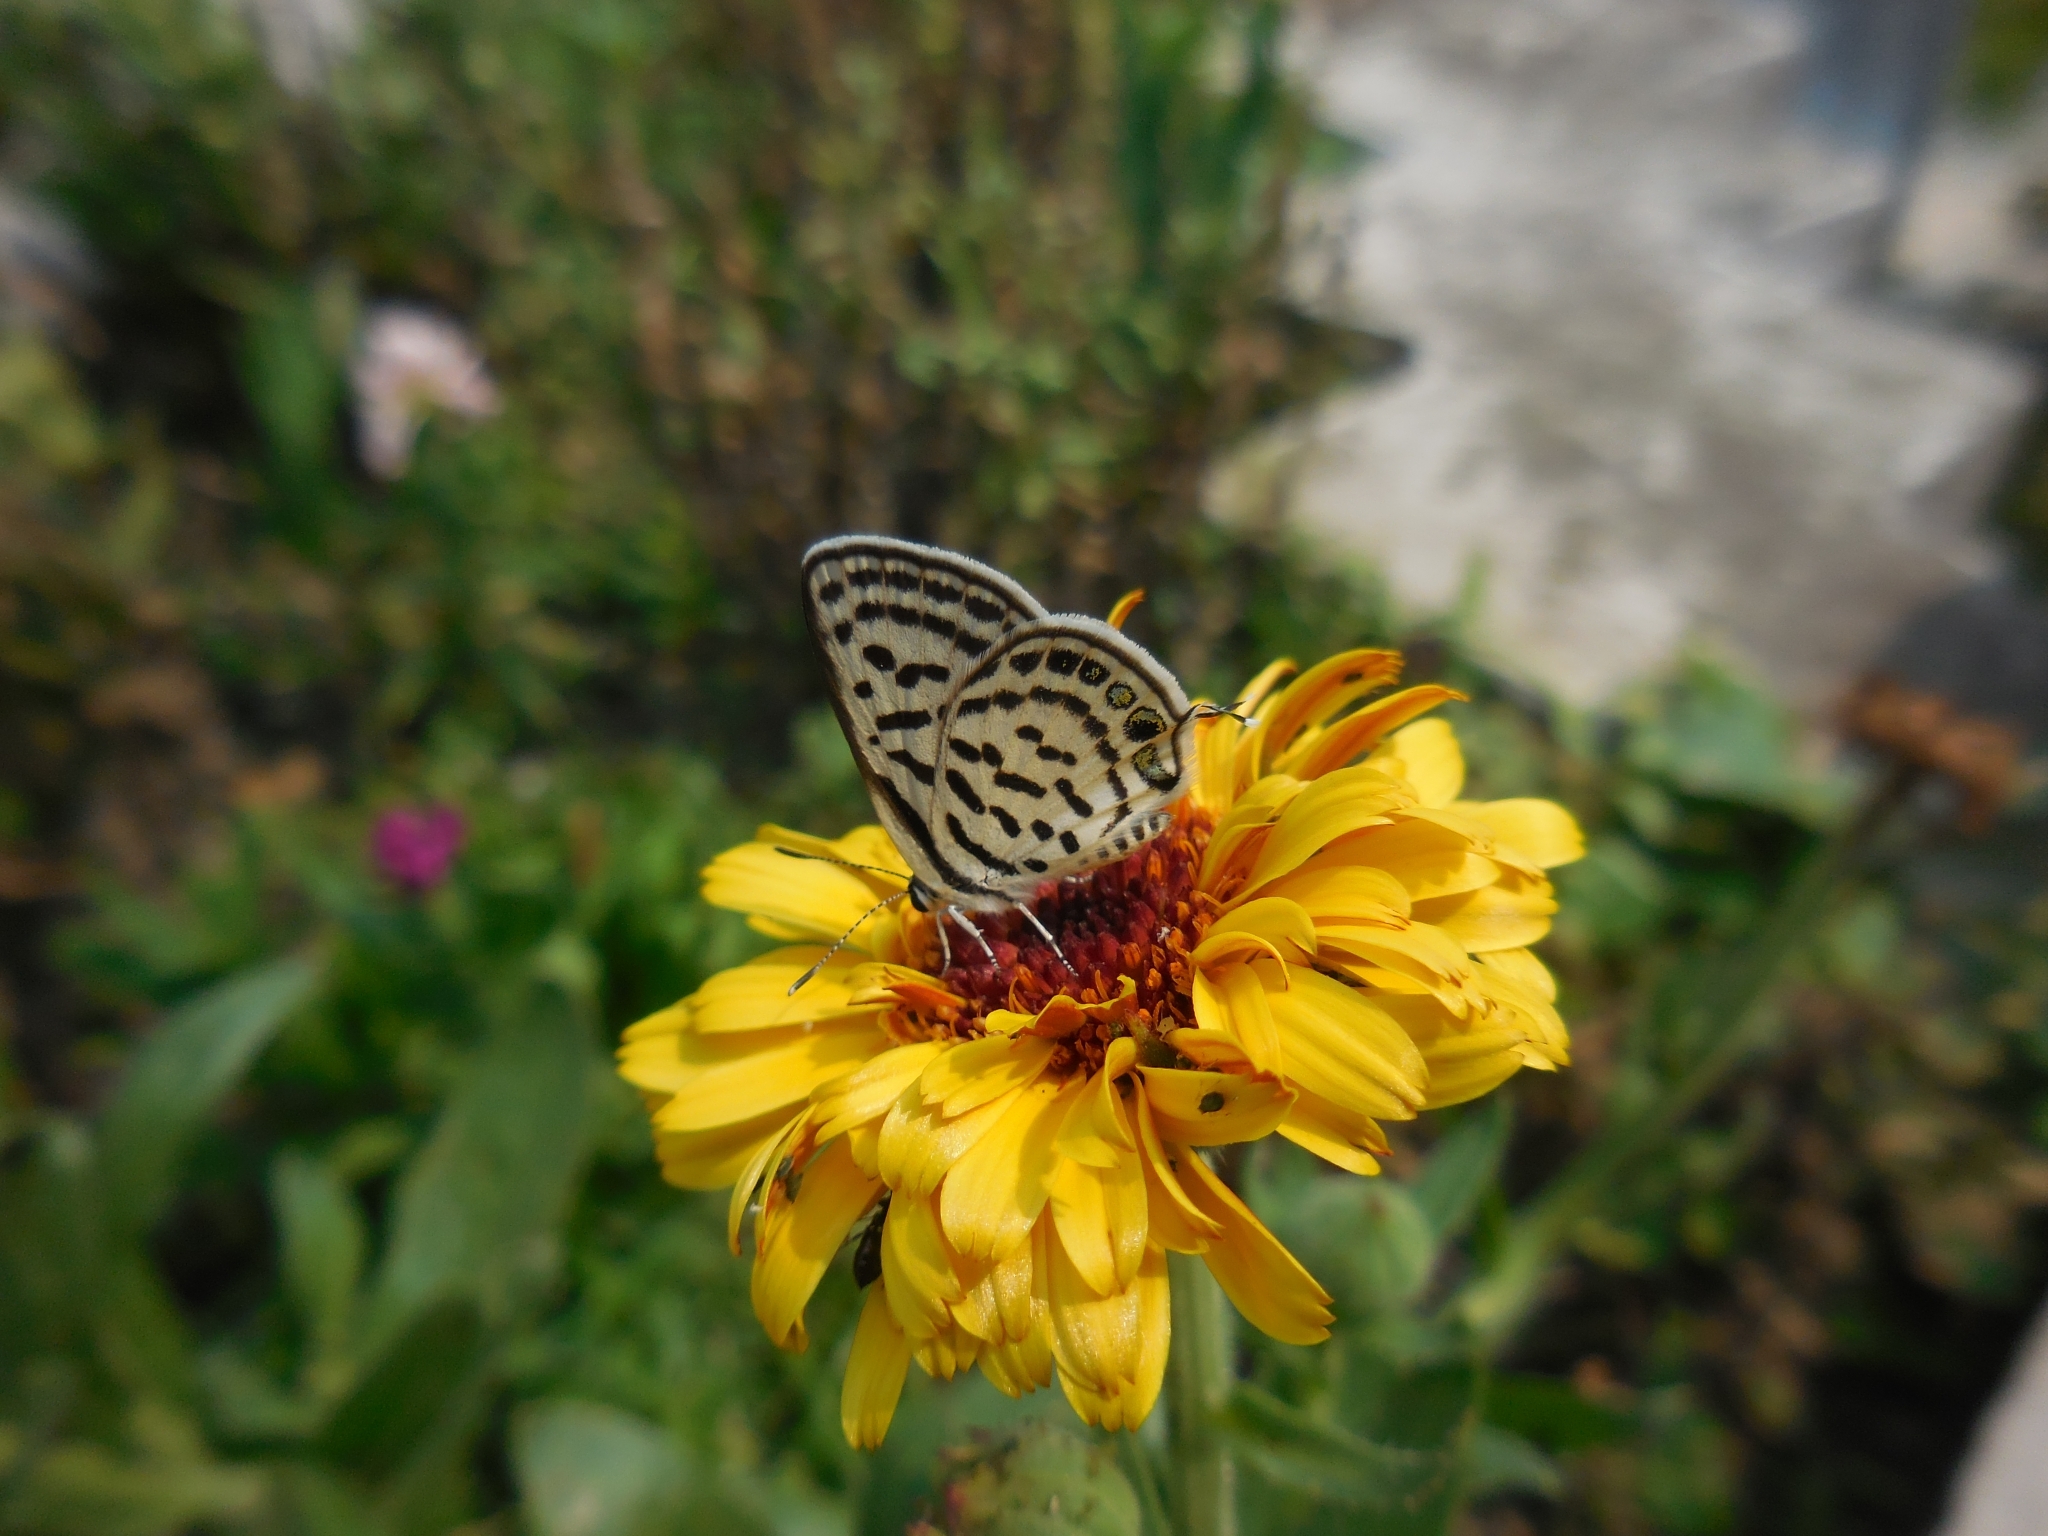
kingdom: Animalia
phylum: Arthropoda
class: Insecta
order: Lepidoptera
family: Lycaenidae
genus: Tarucus
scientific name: Tarucus
